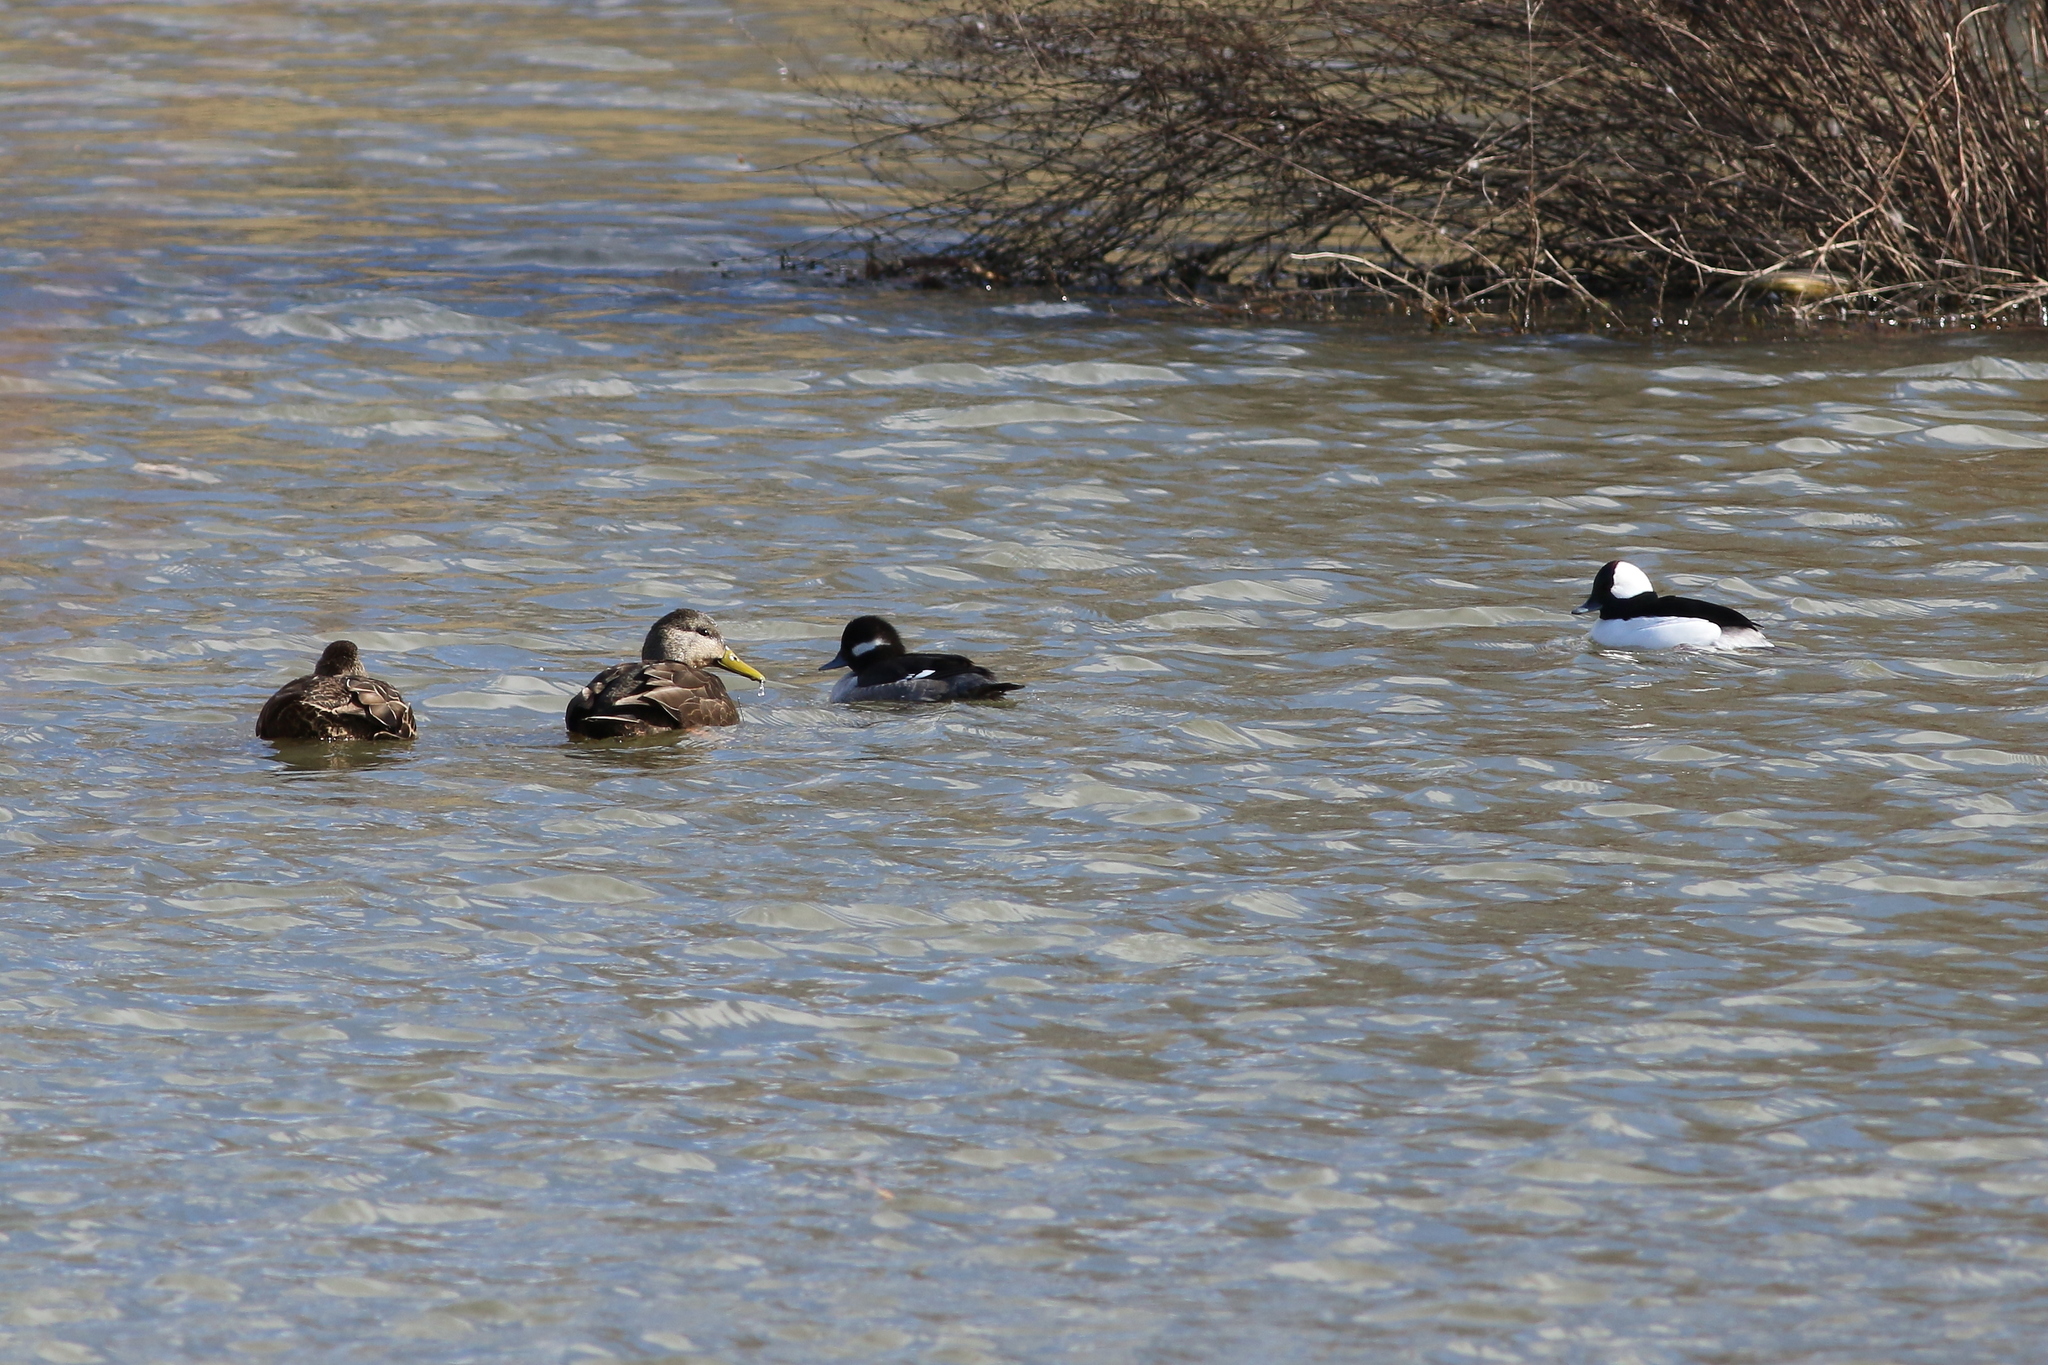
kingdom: Animalia
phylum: Chordata
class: Aves
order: Anseriformes
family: Anatidae
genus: Anas
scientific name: Anas rubripes
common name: American black duck
